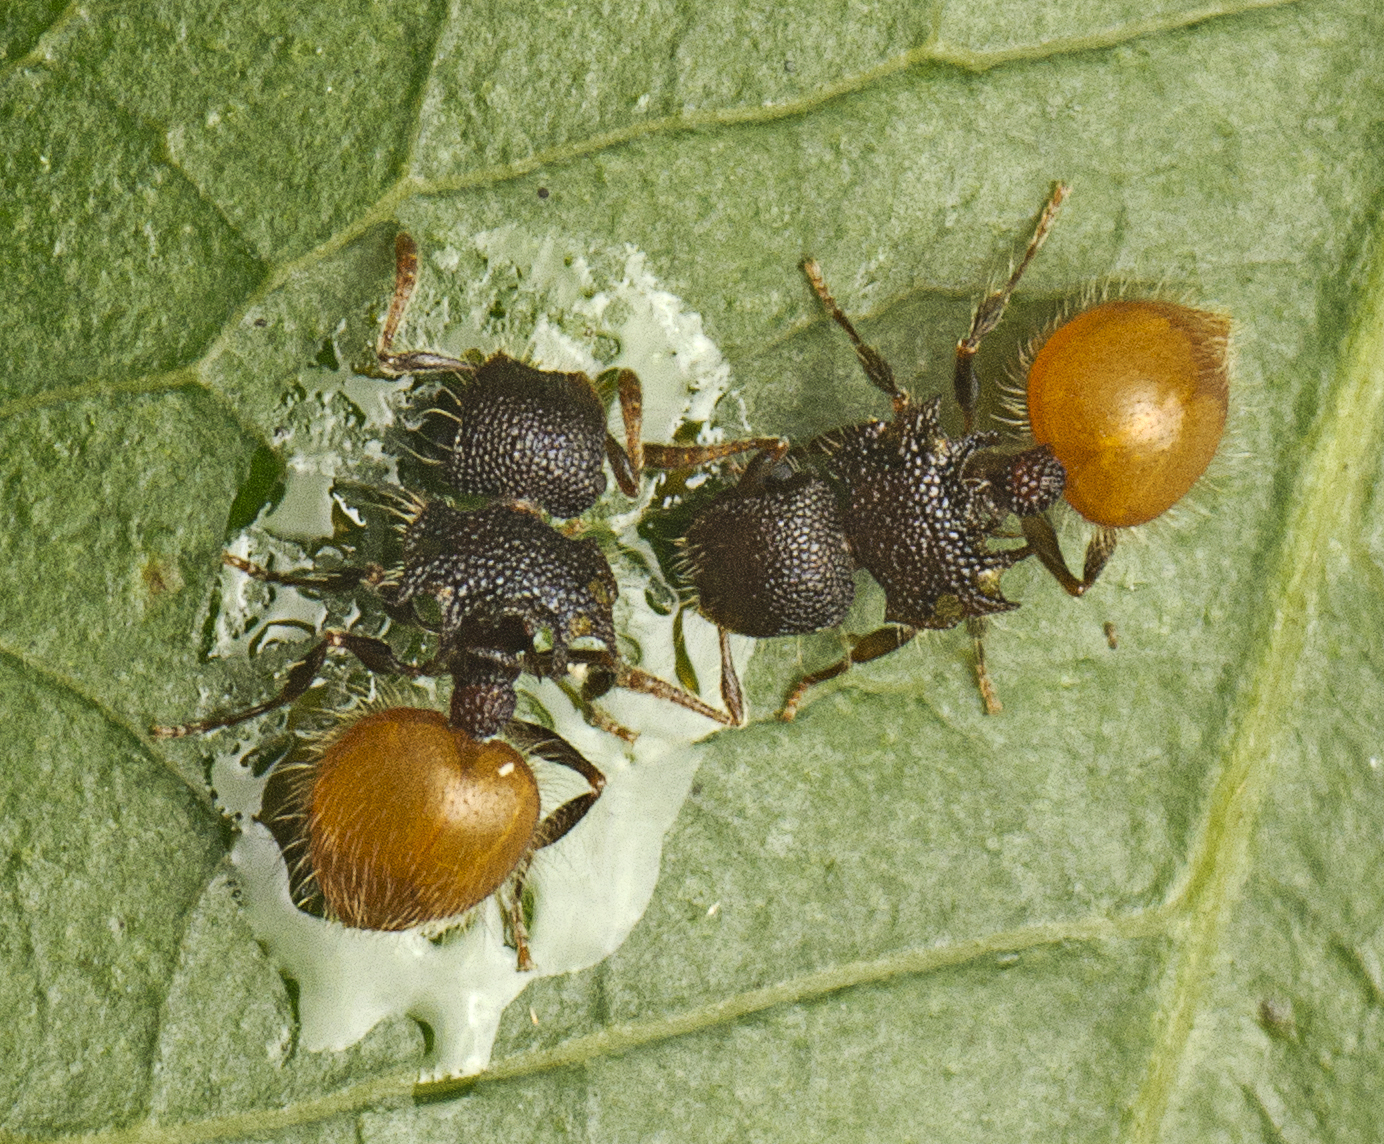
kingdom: Animalia
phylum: Arthropoda
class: Insecta
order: Hymenoptera
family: Formicidae
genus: Meranoplus
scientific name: Meranoplus hirsutus
